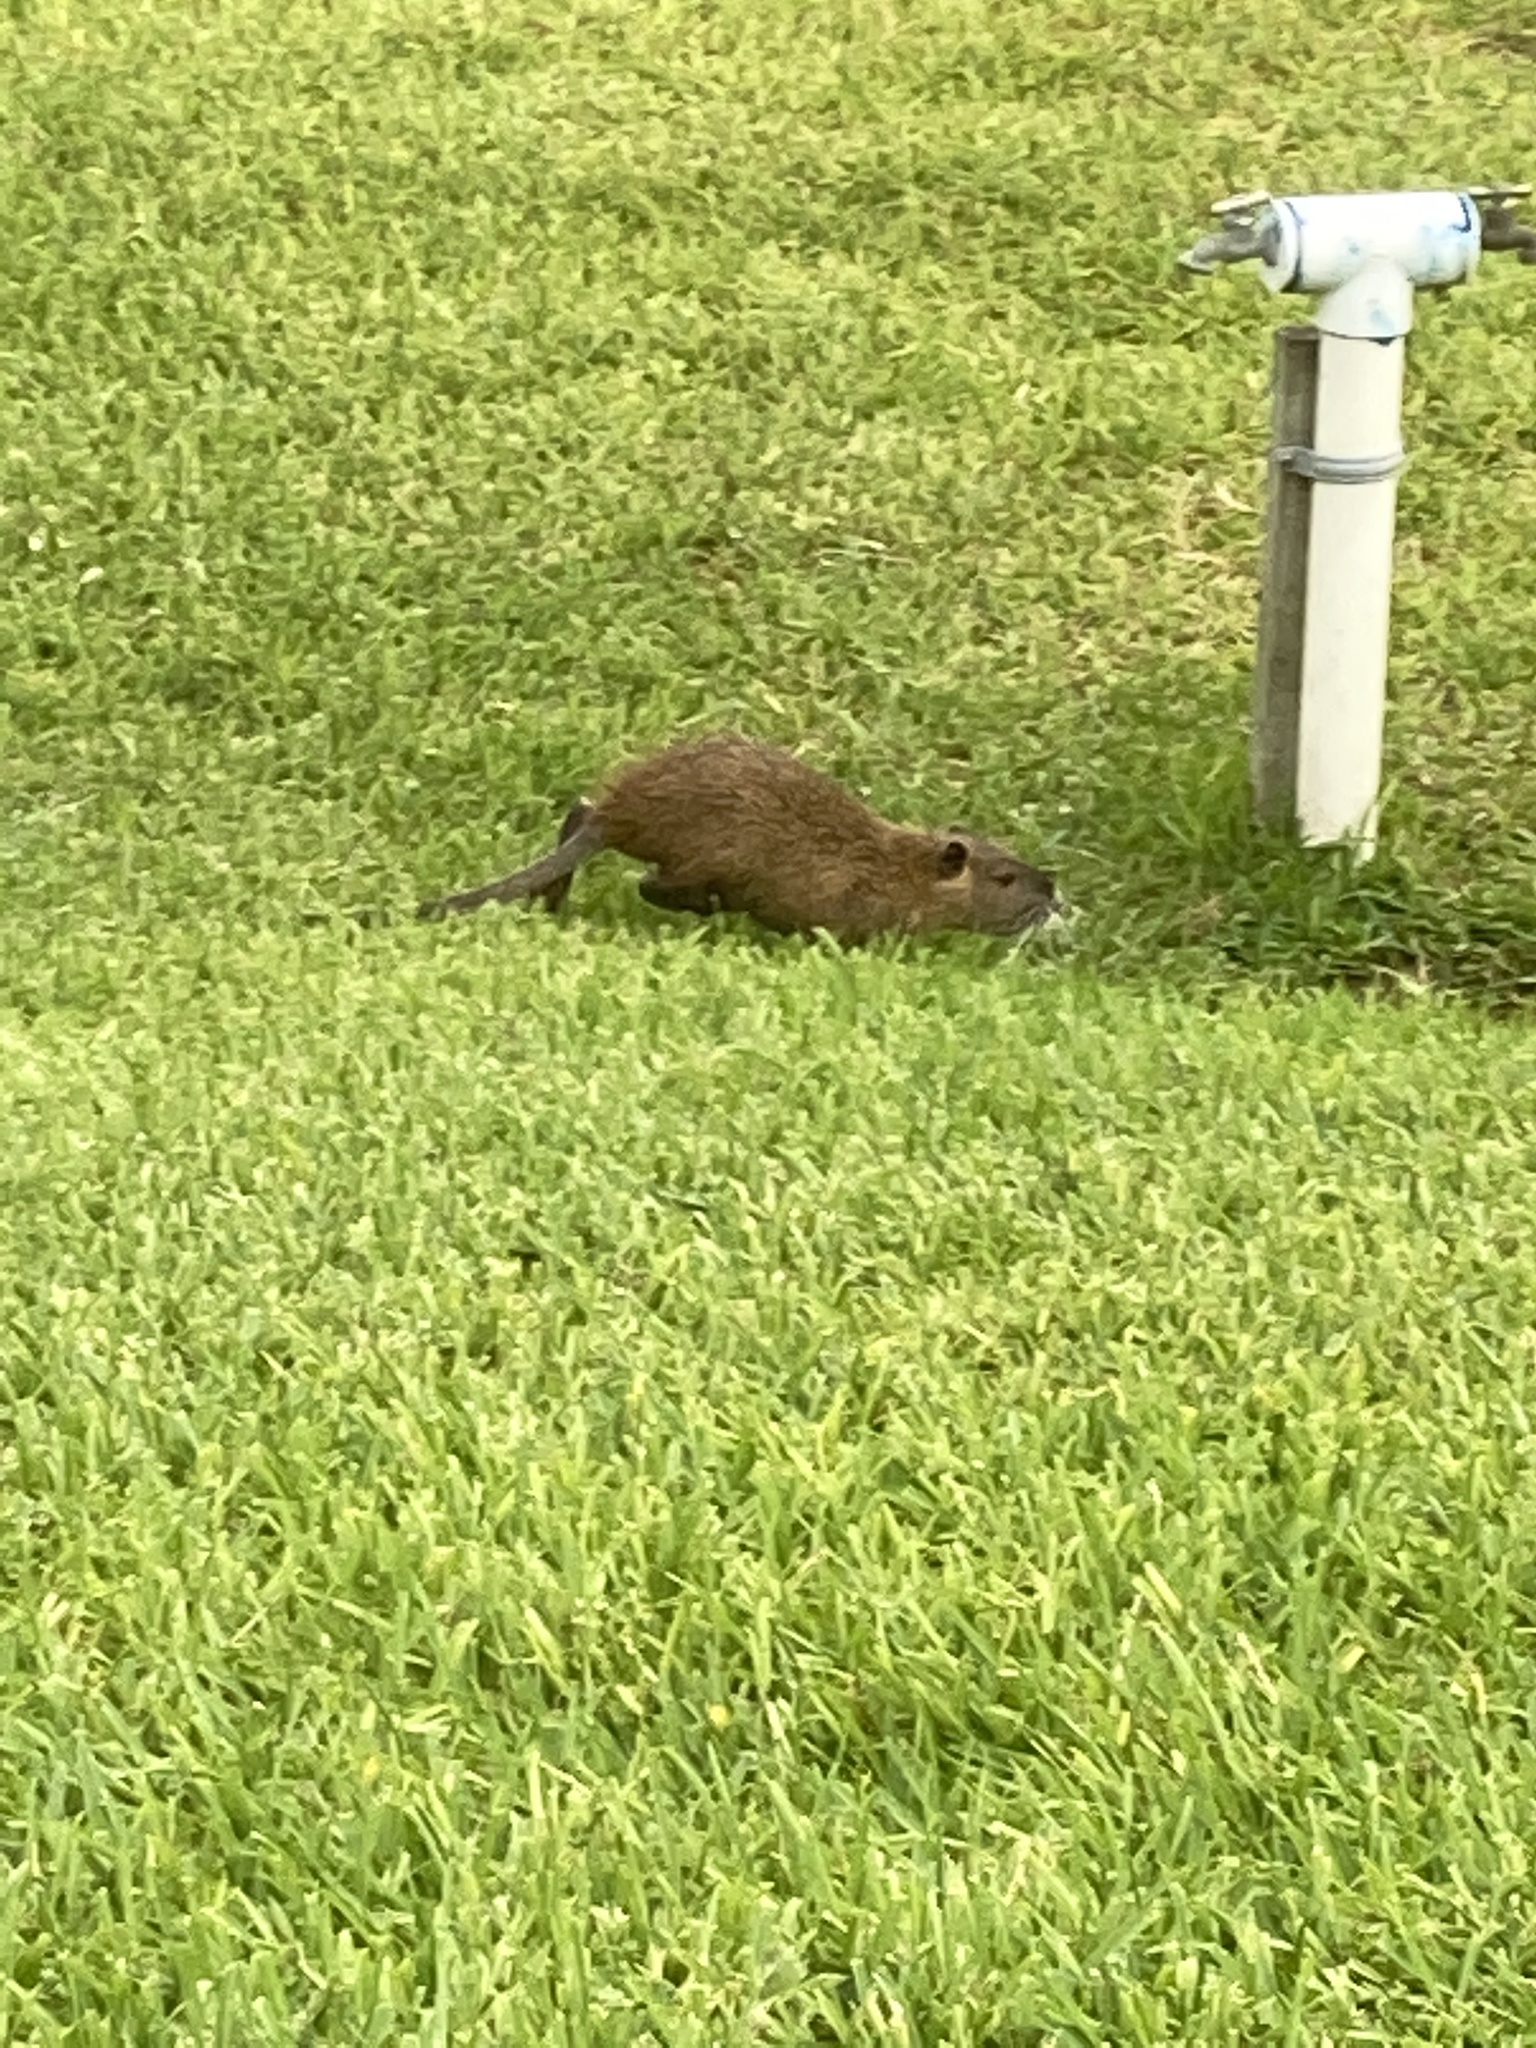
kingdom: Animalia
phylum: Chordata
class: Mammalia
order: Rodentia
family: Myocastoridae
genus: Myocastor
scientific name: Myocastor coypus
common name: Coypu
